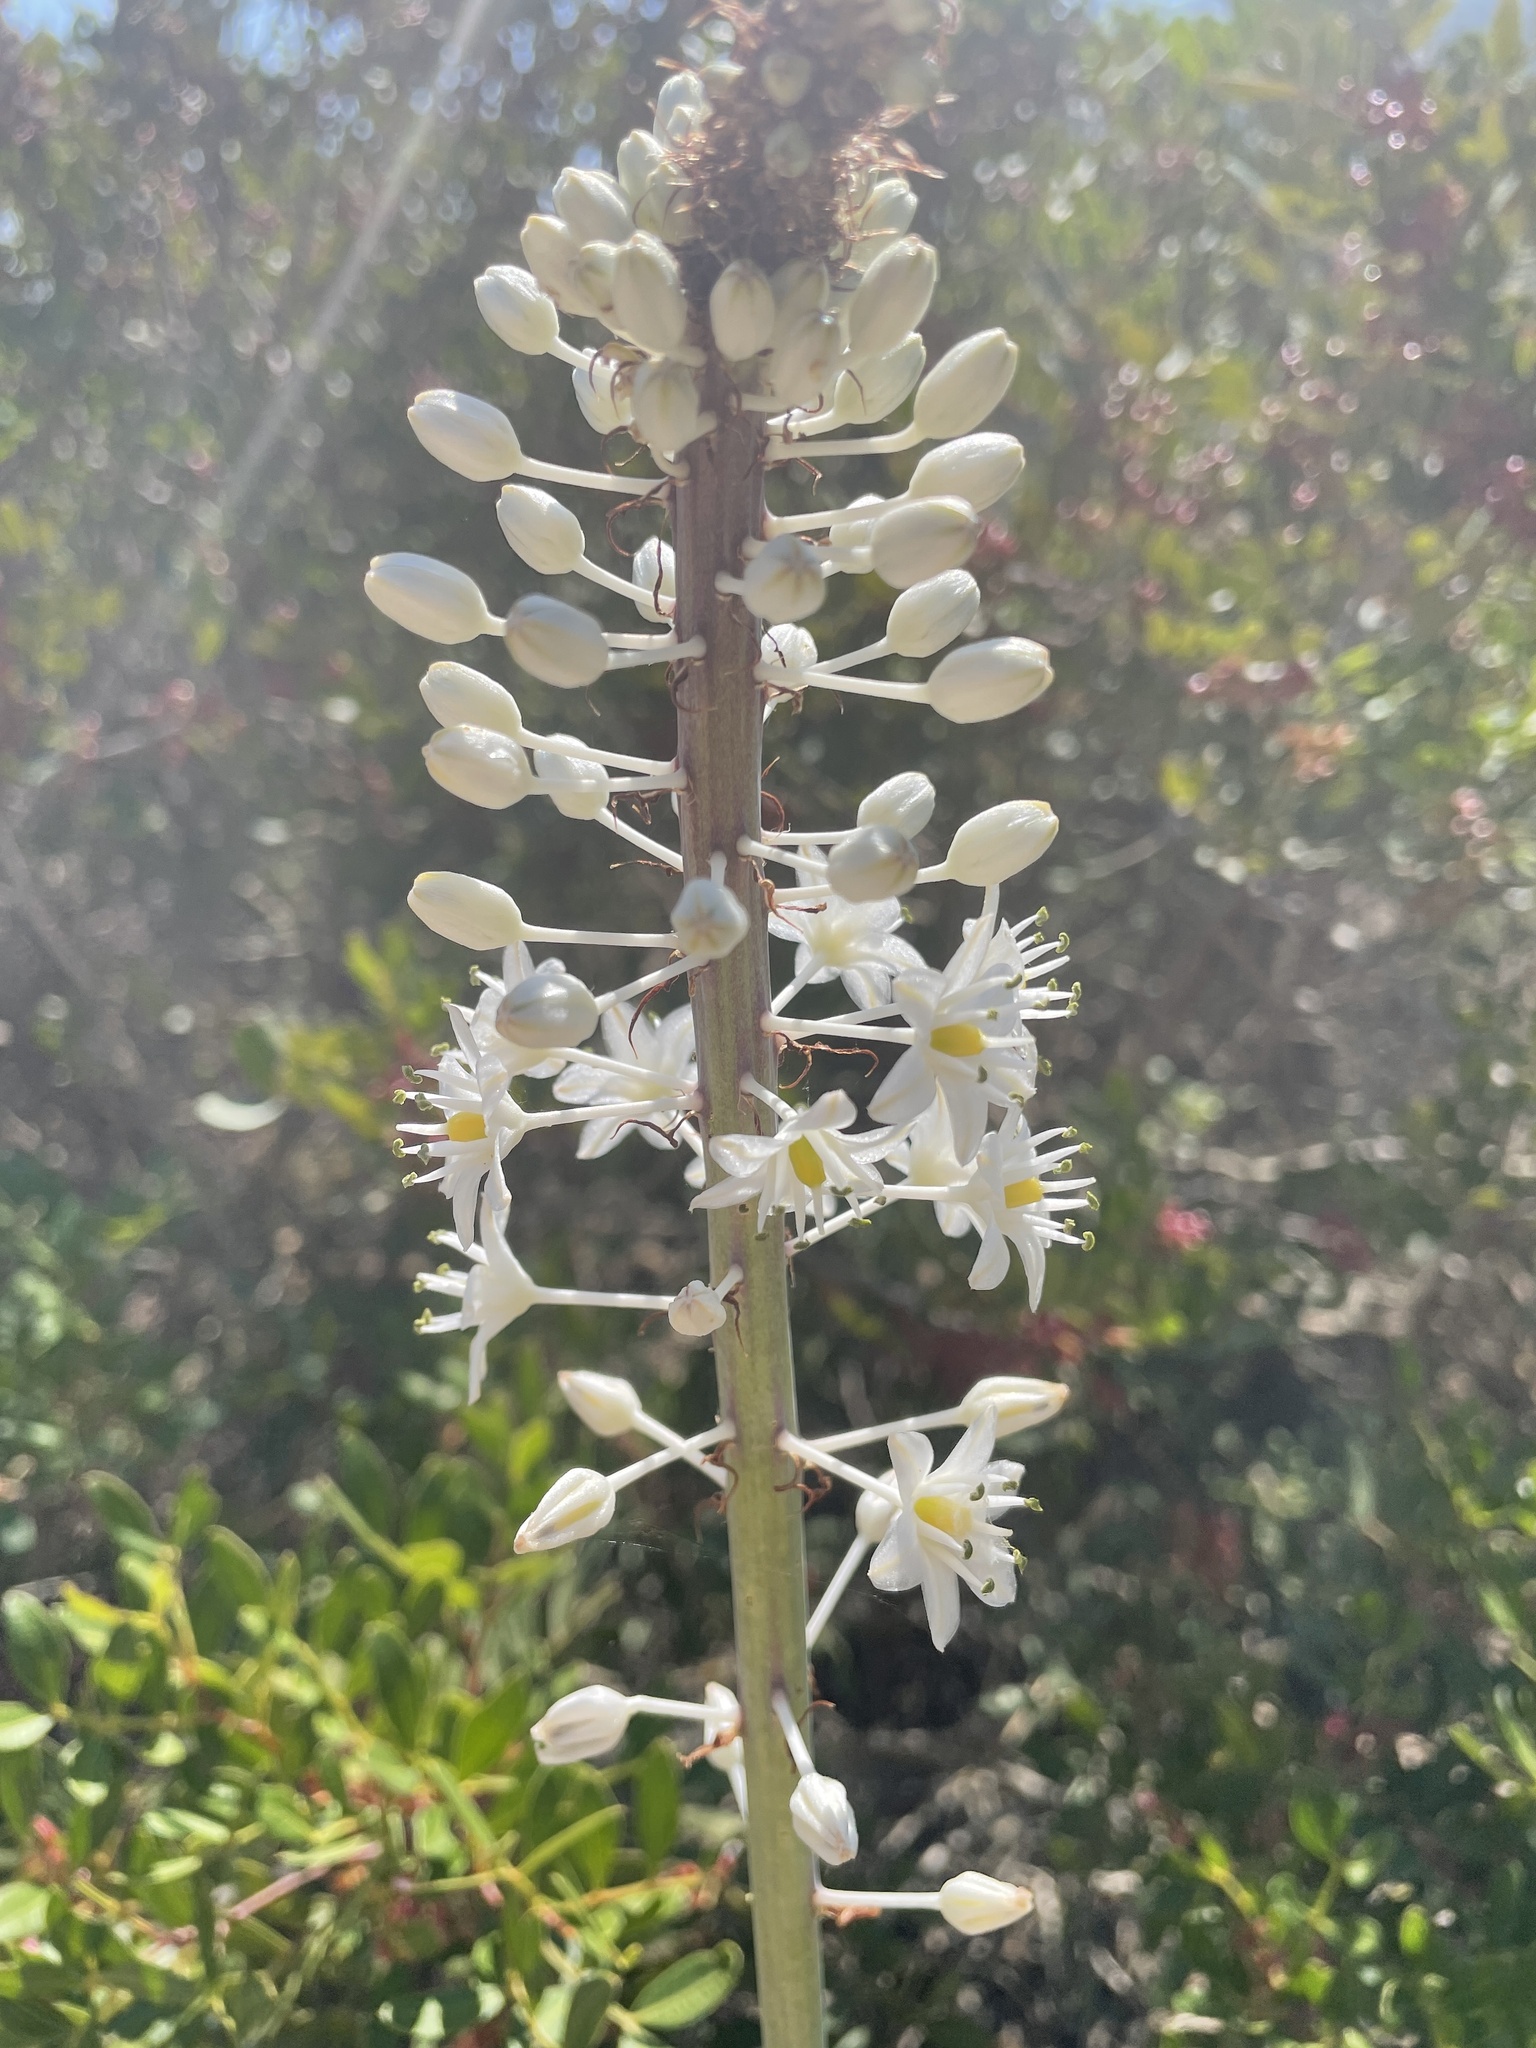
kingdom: Plantae
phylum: Tracheophyta
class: Liliopsida
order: Asparagales
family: Asparagaceae
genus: Drimia
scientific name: Drimia numidica
